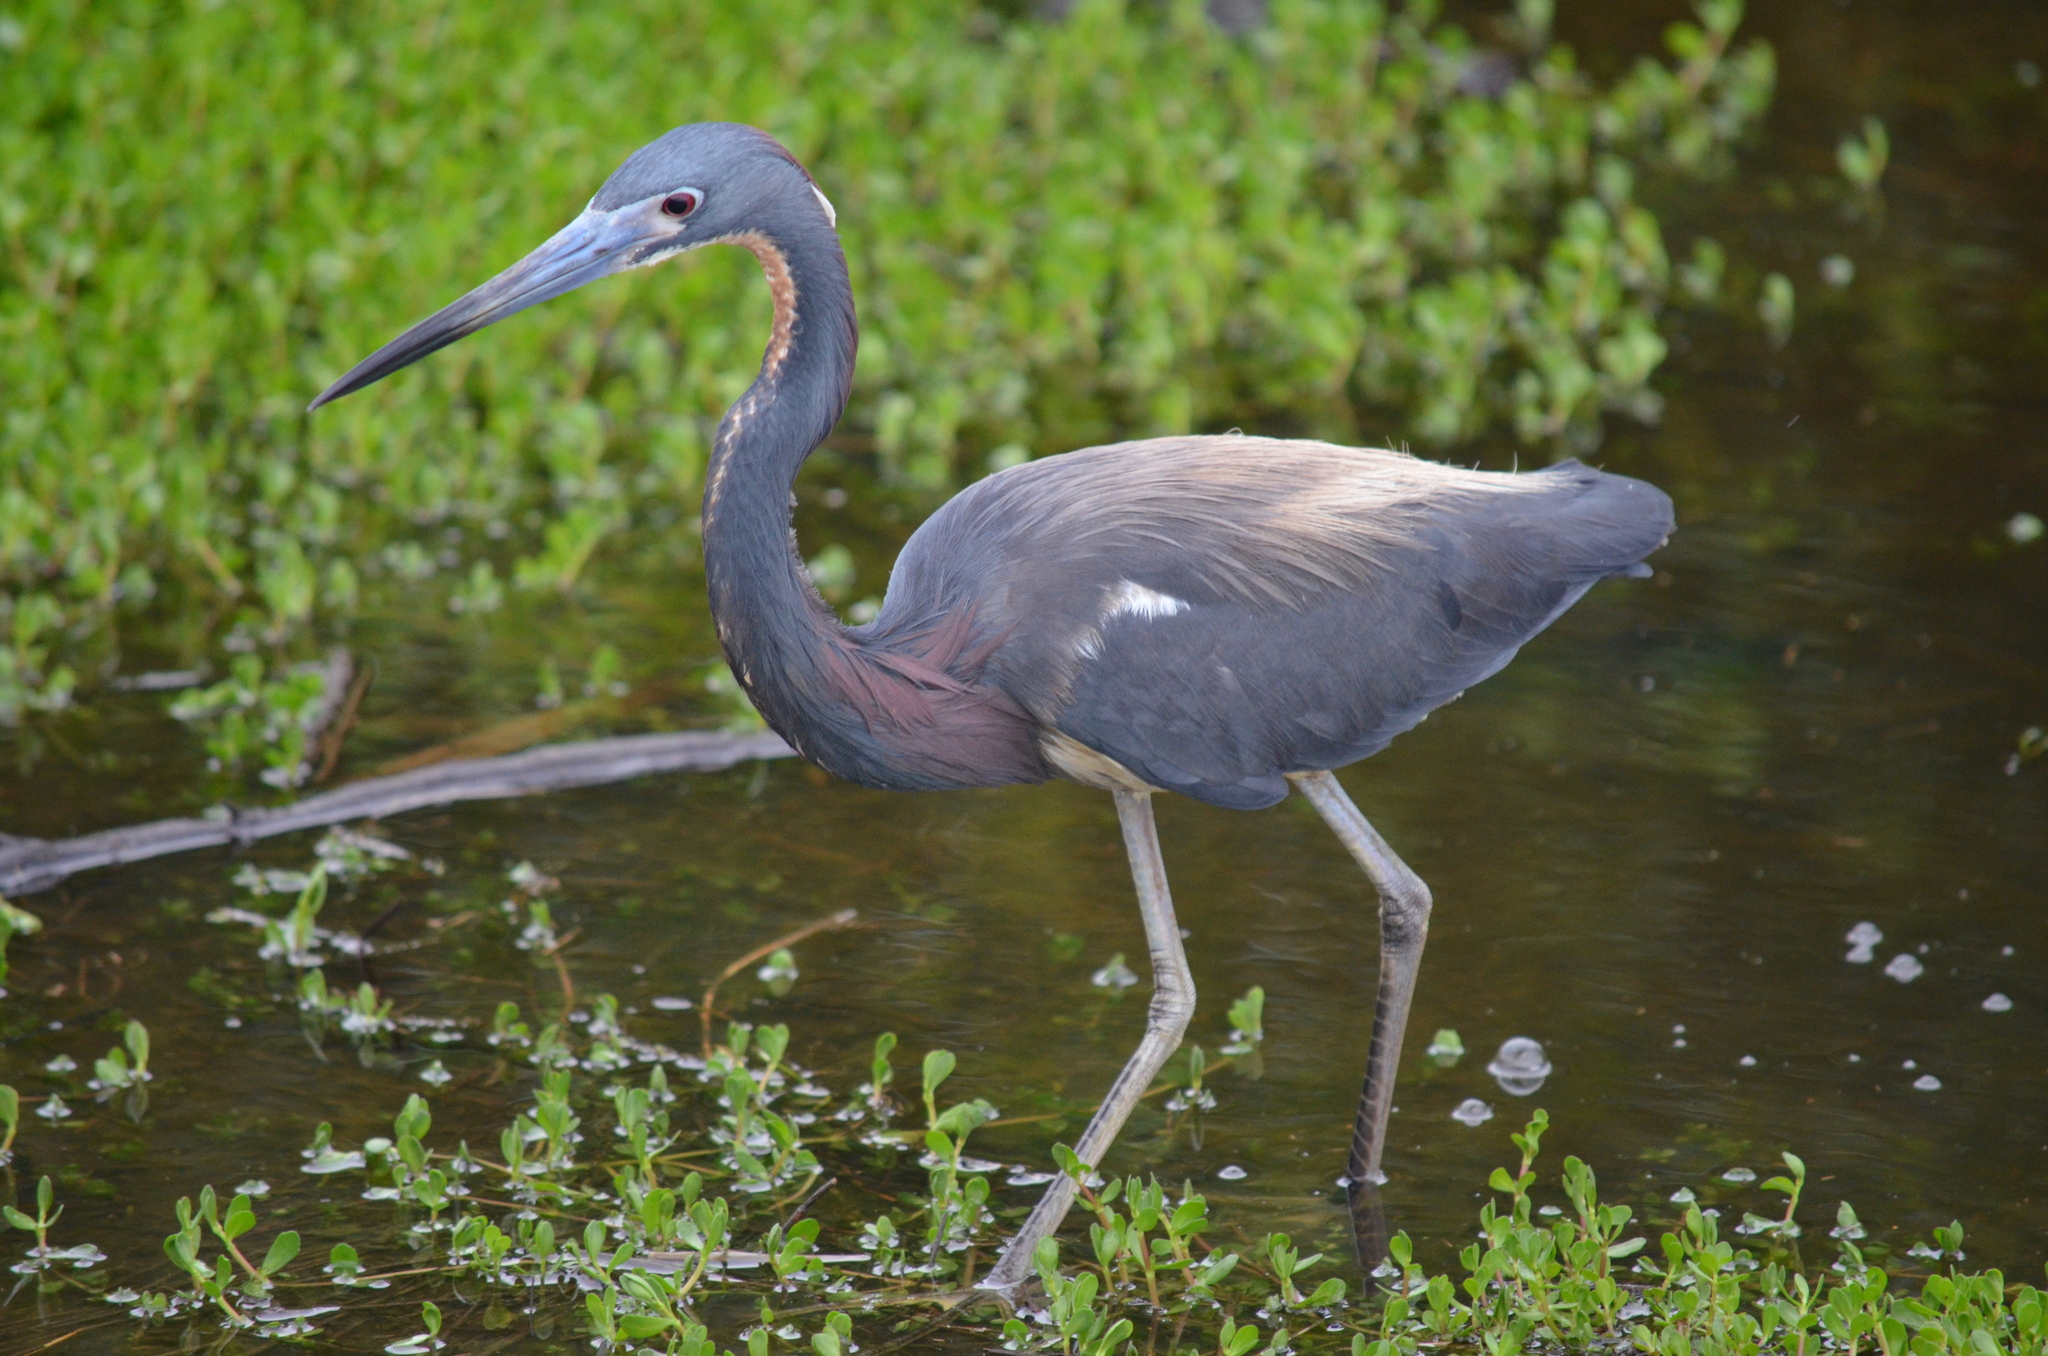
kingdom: Animalia
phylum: Chordata
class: Aves
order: Pelecaniformes
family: Ardeidae
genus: Egretta
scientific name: Egretta tricolor
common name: Tricolored heron
